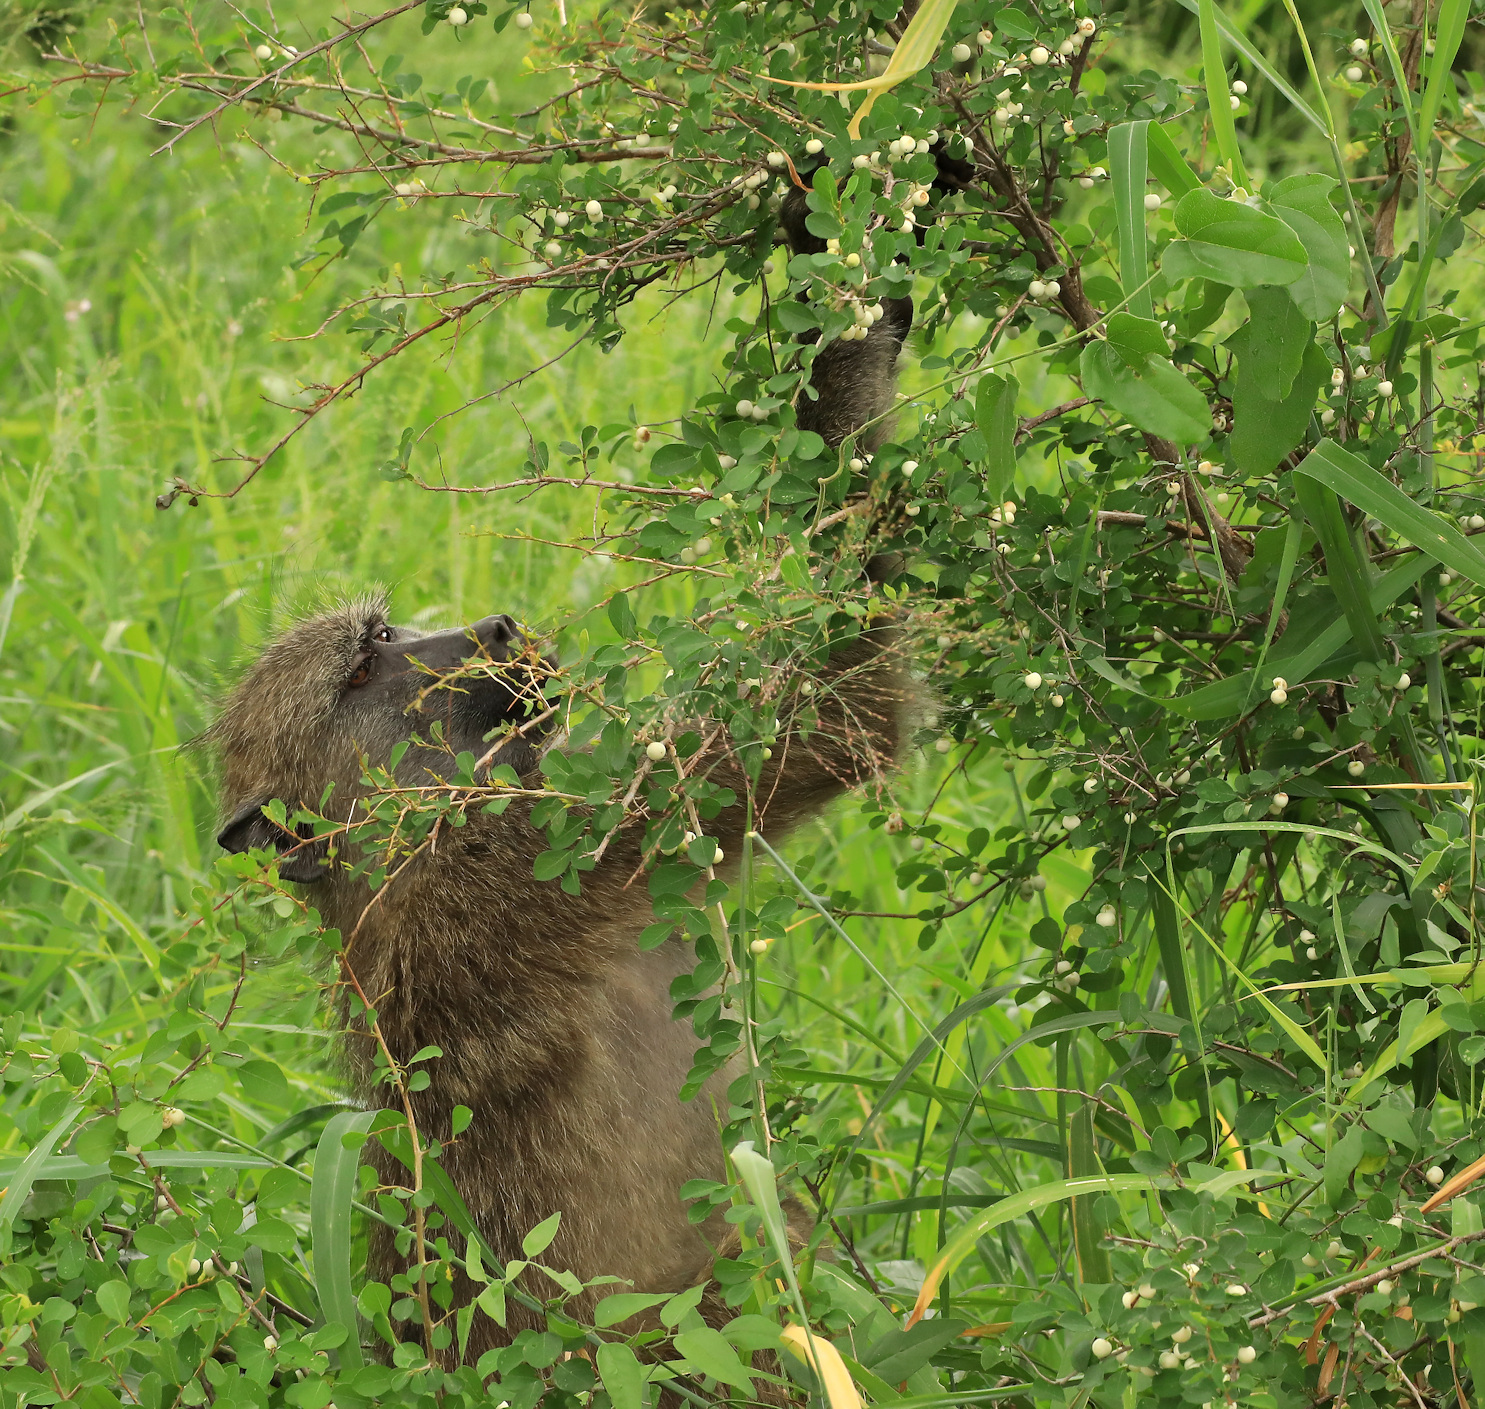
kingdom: Animalia
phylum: Chordata
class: Mammalia
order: Primates
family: Cercopithecidae
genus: Papio
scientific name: Papio ursinus
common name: Chacma baboon
